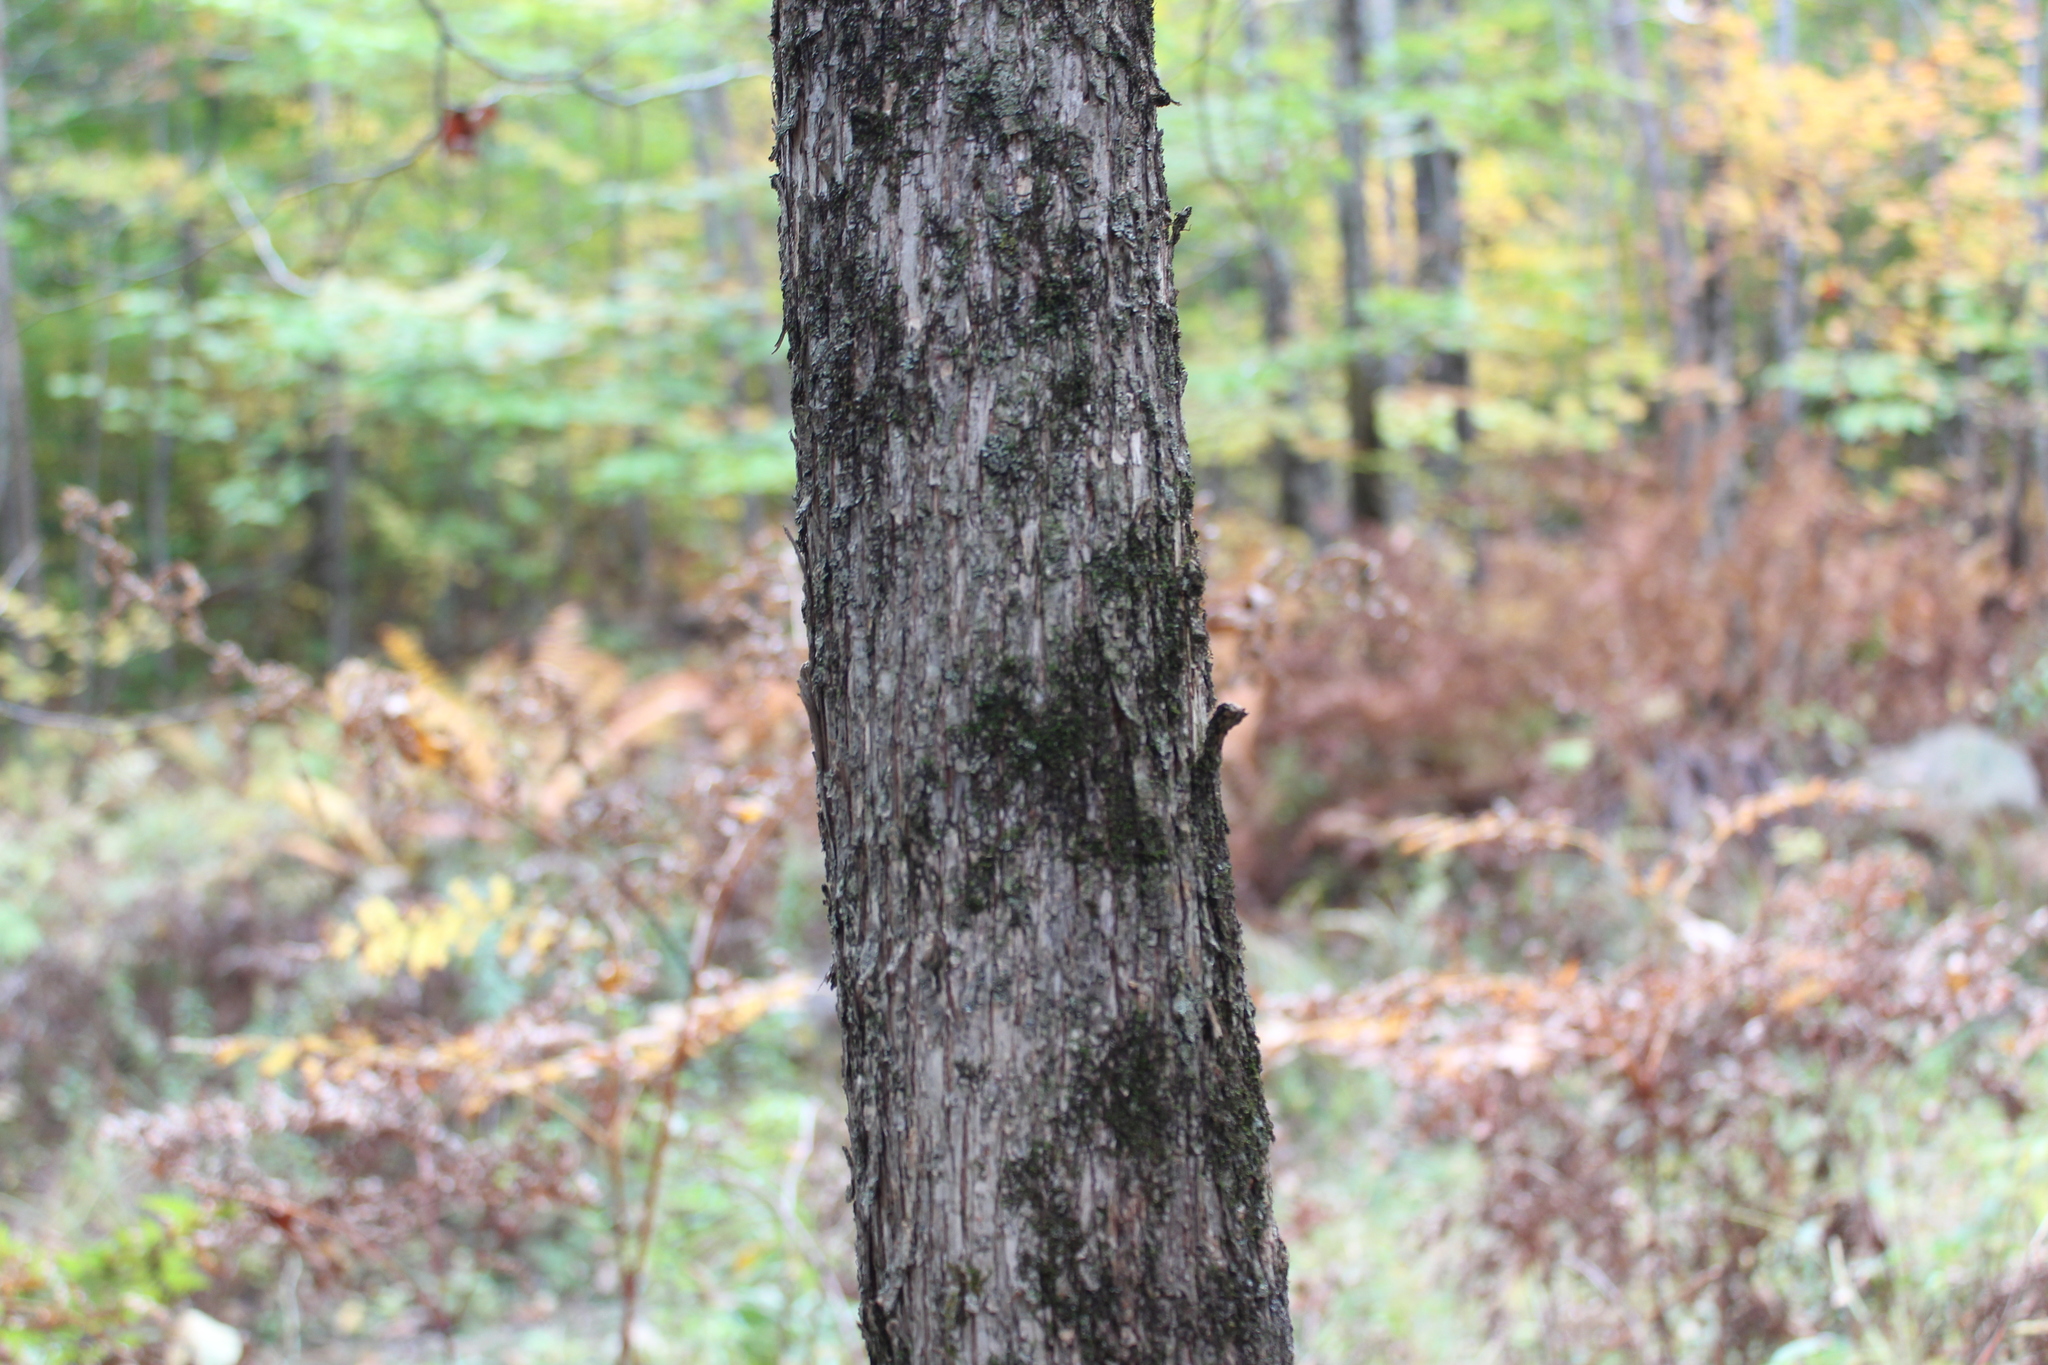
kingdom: Plantae
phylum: Tracheophyta
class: Magnoliopsida
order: Fagales
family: Betulaceae
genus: Ostrya
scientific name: Ostrya virginiana
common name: Ironwood
